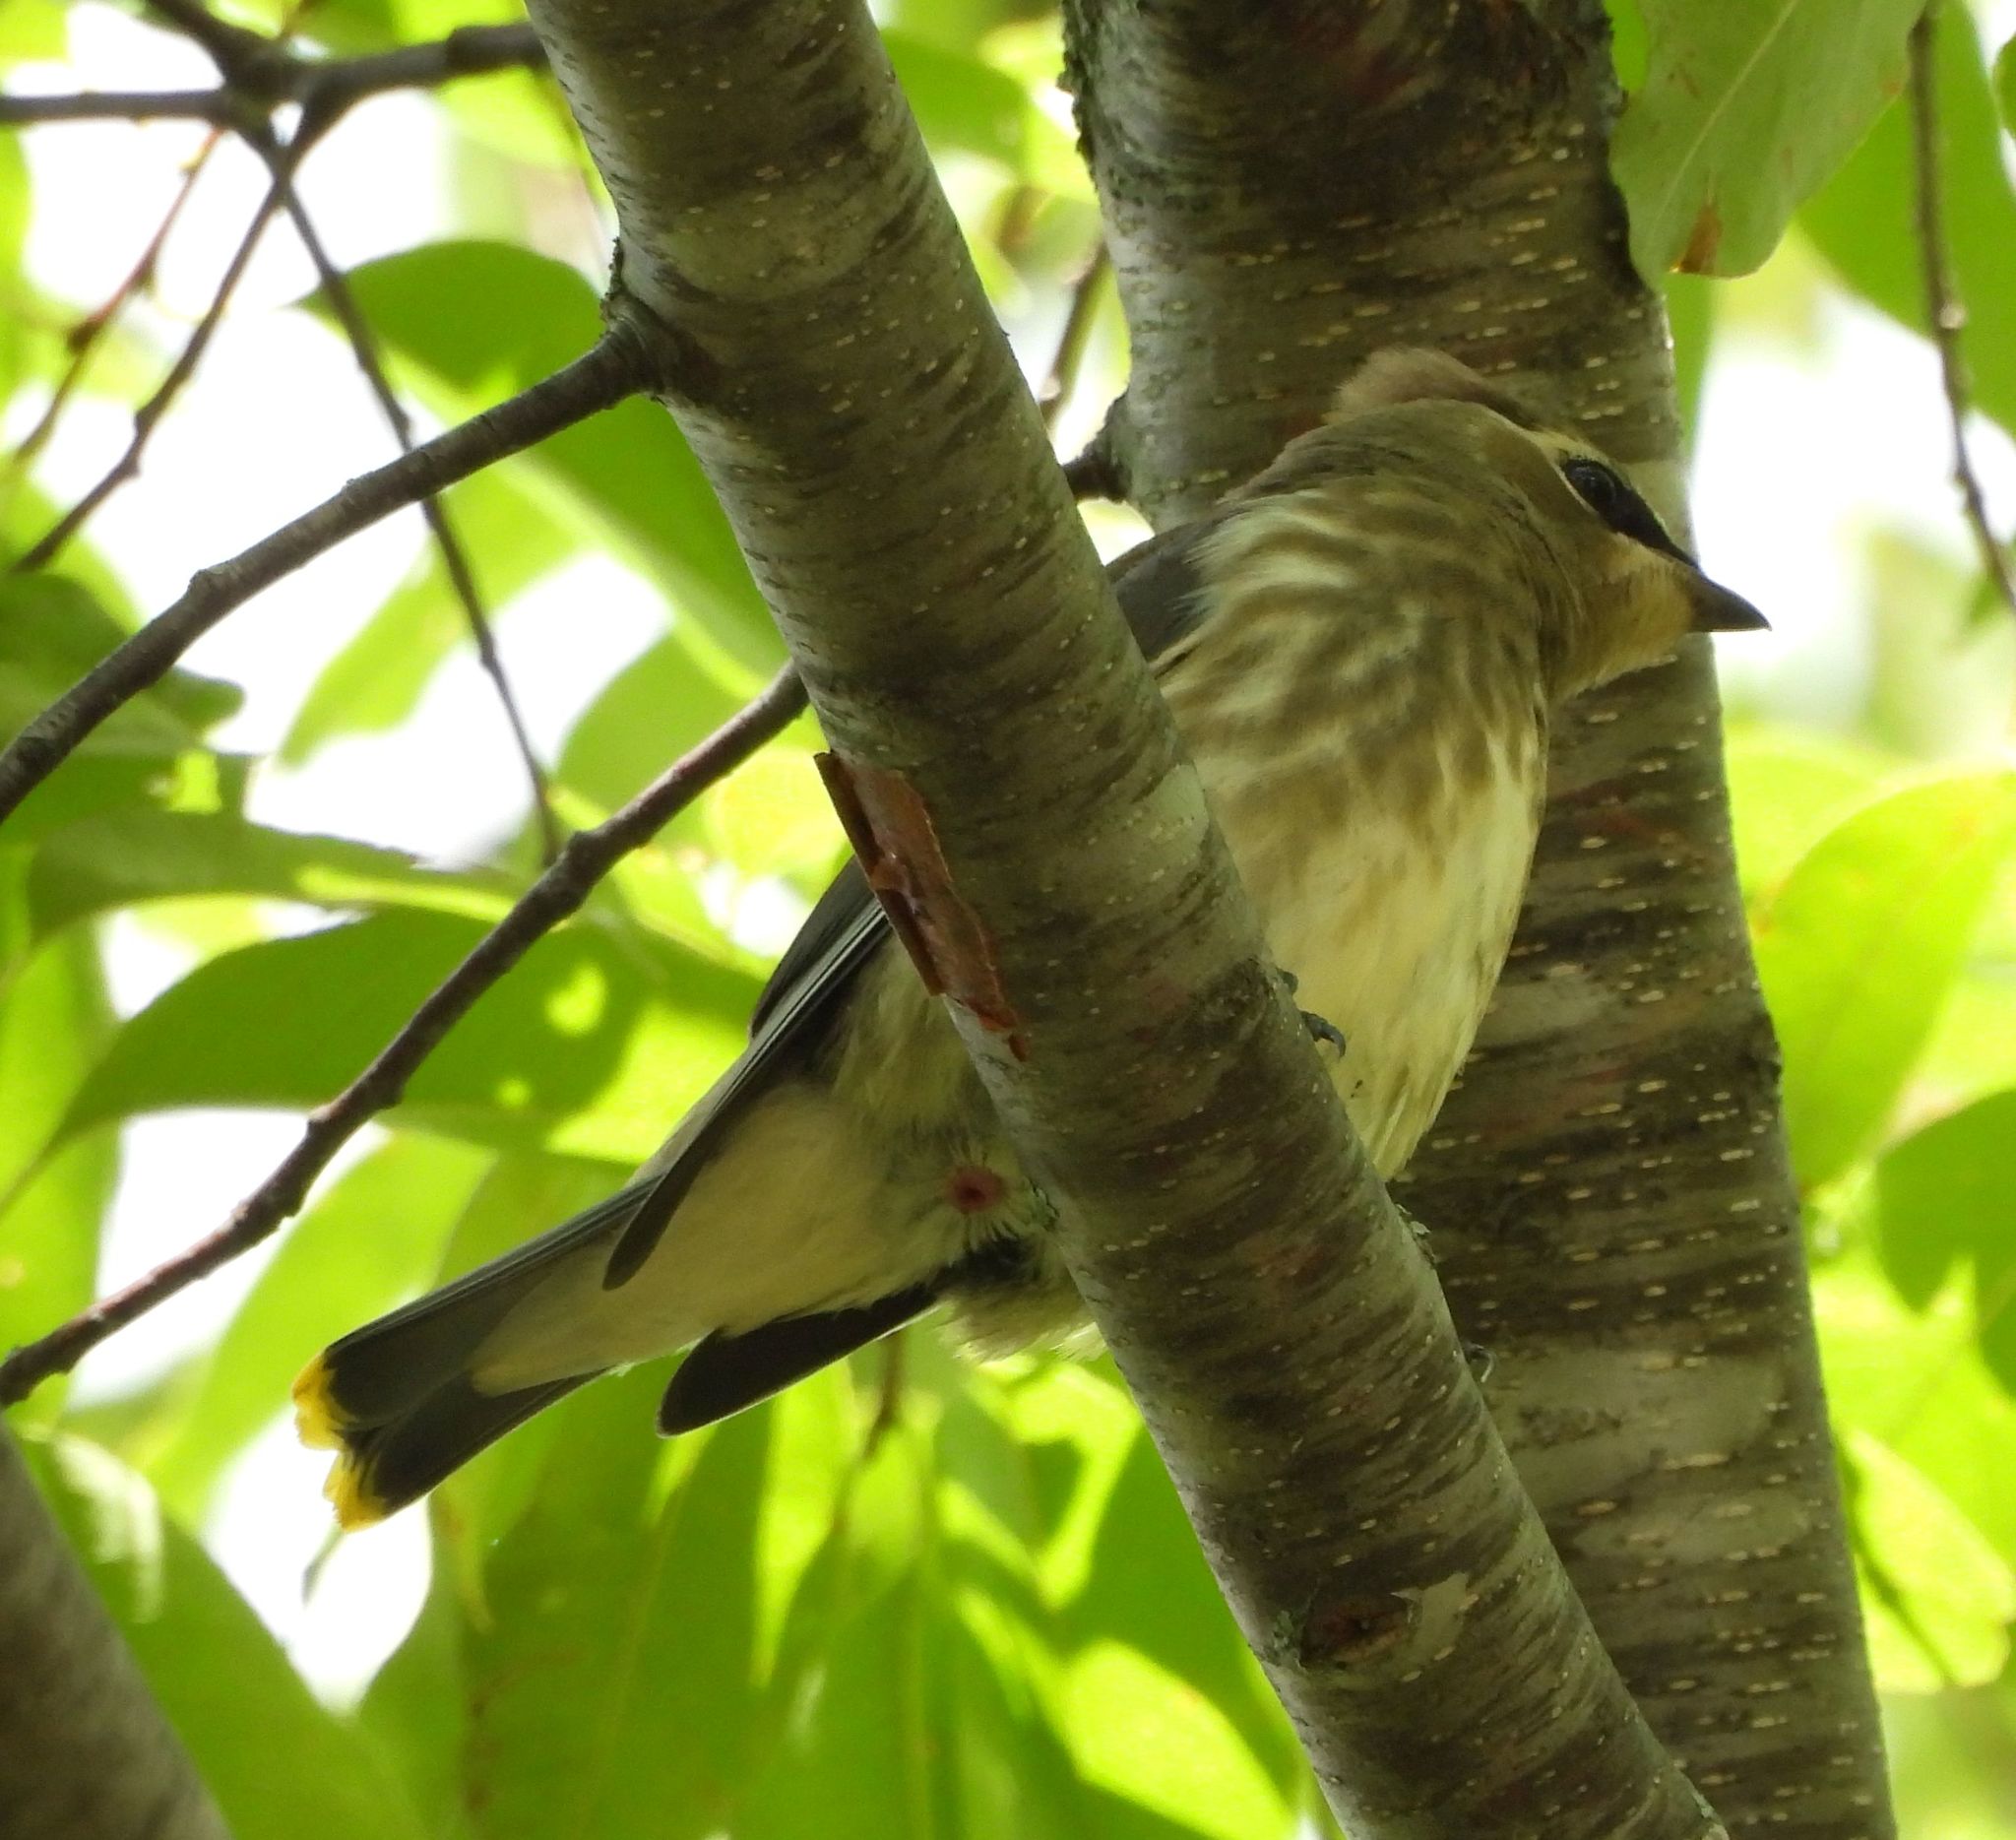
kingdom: Animalia
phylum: Chordata
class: Aves
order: Passeriformes
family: Bombycillidae
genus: Bombycilla
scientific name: Bombycilla cedrorum
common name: Cedar waxwing
